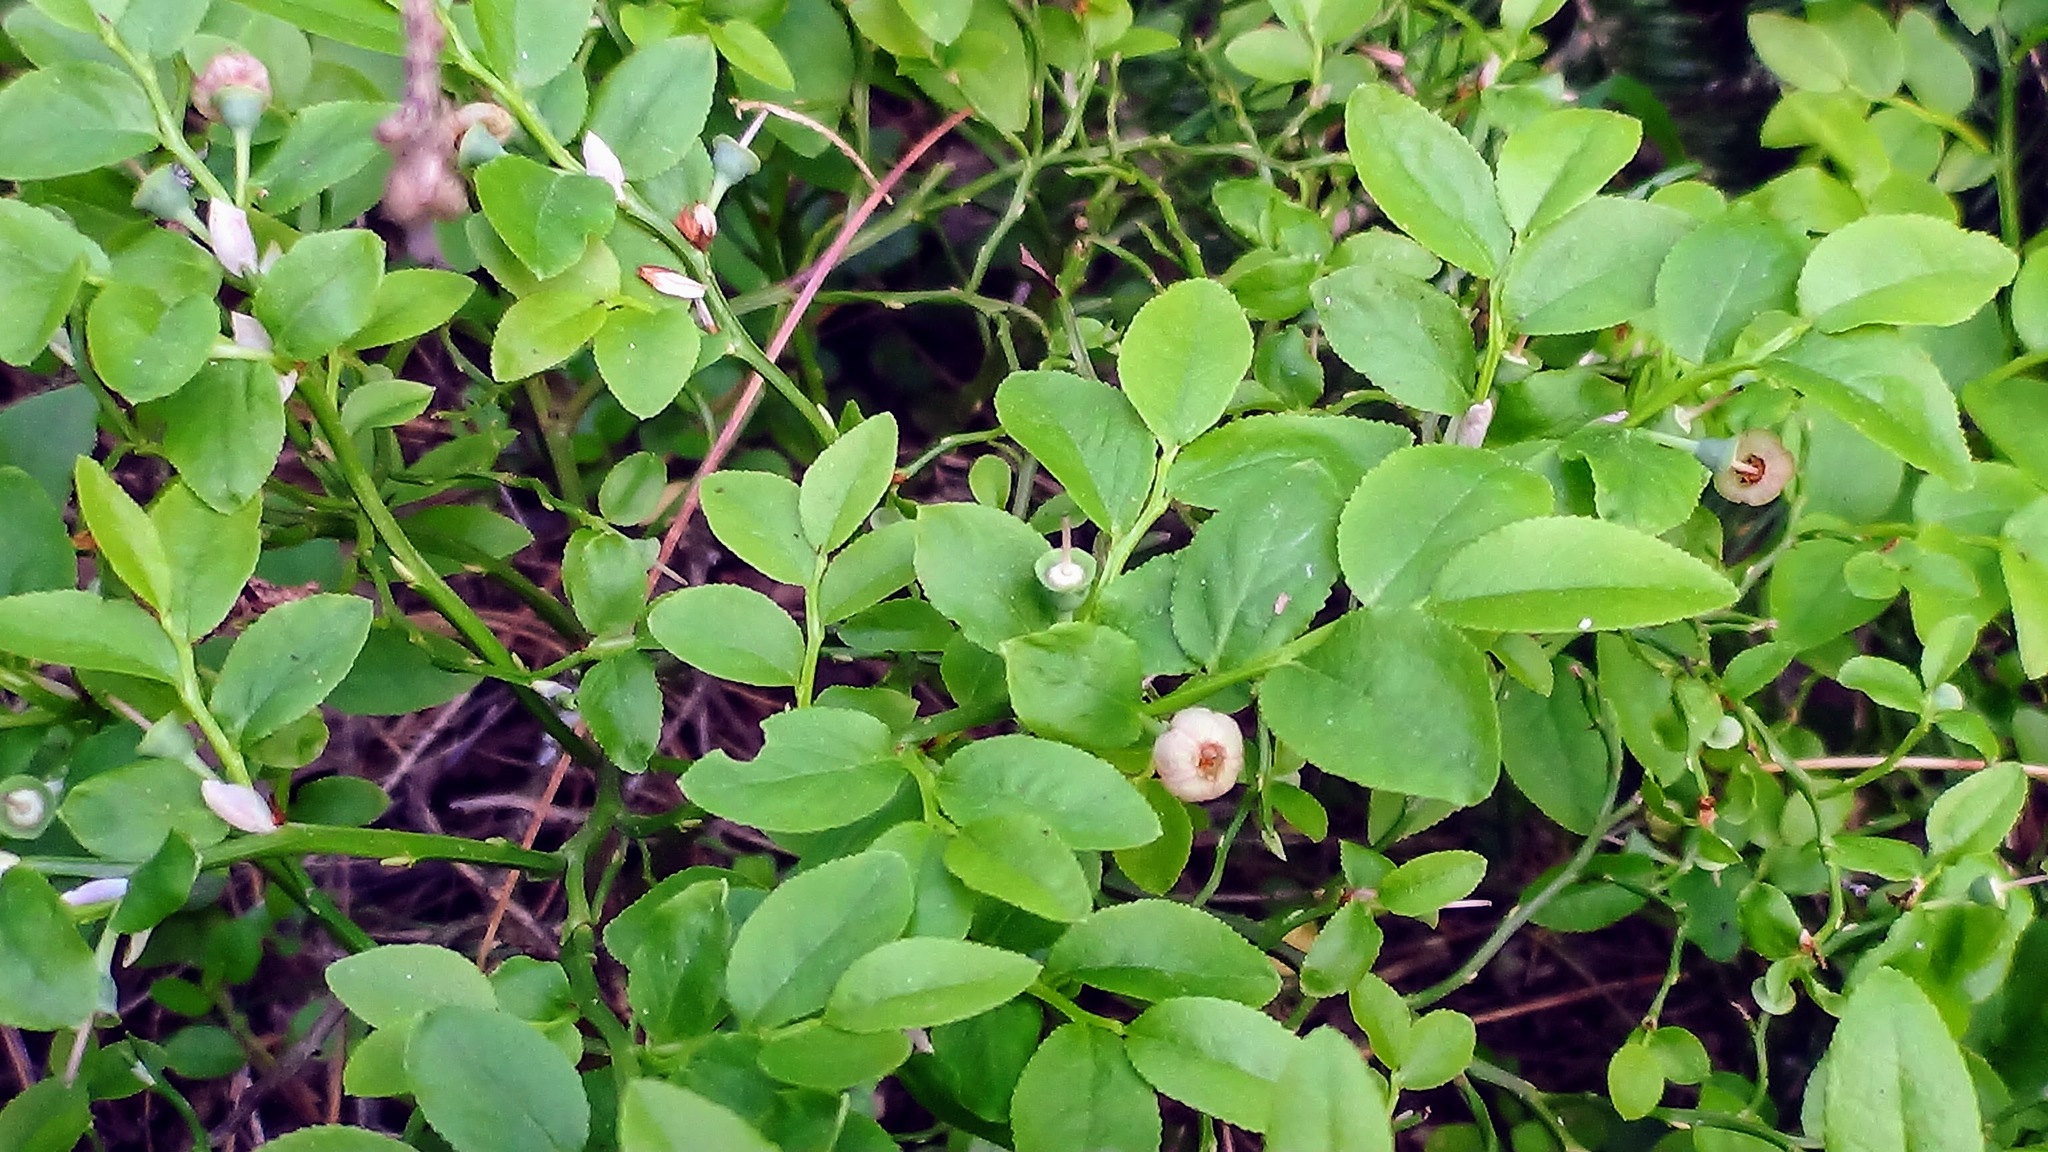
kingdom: Plantae
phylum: Tracheophyta
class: Magnoliopsida
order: Ericales
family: Ericaceae
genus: Vaccinium
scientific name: Vaccinium myrtillus
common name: Bilberry
